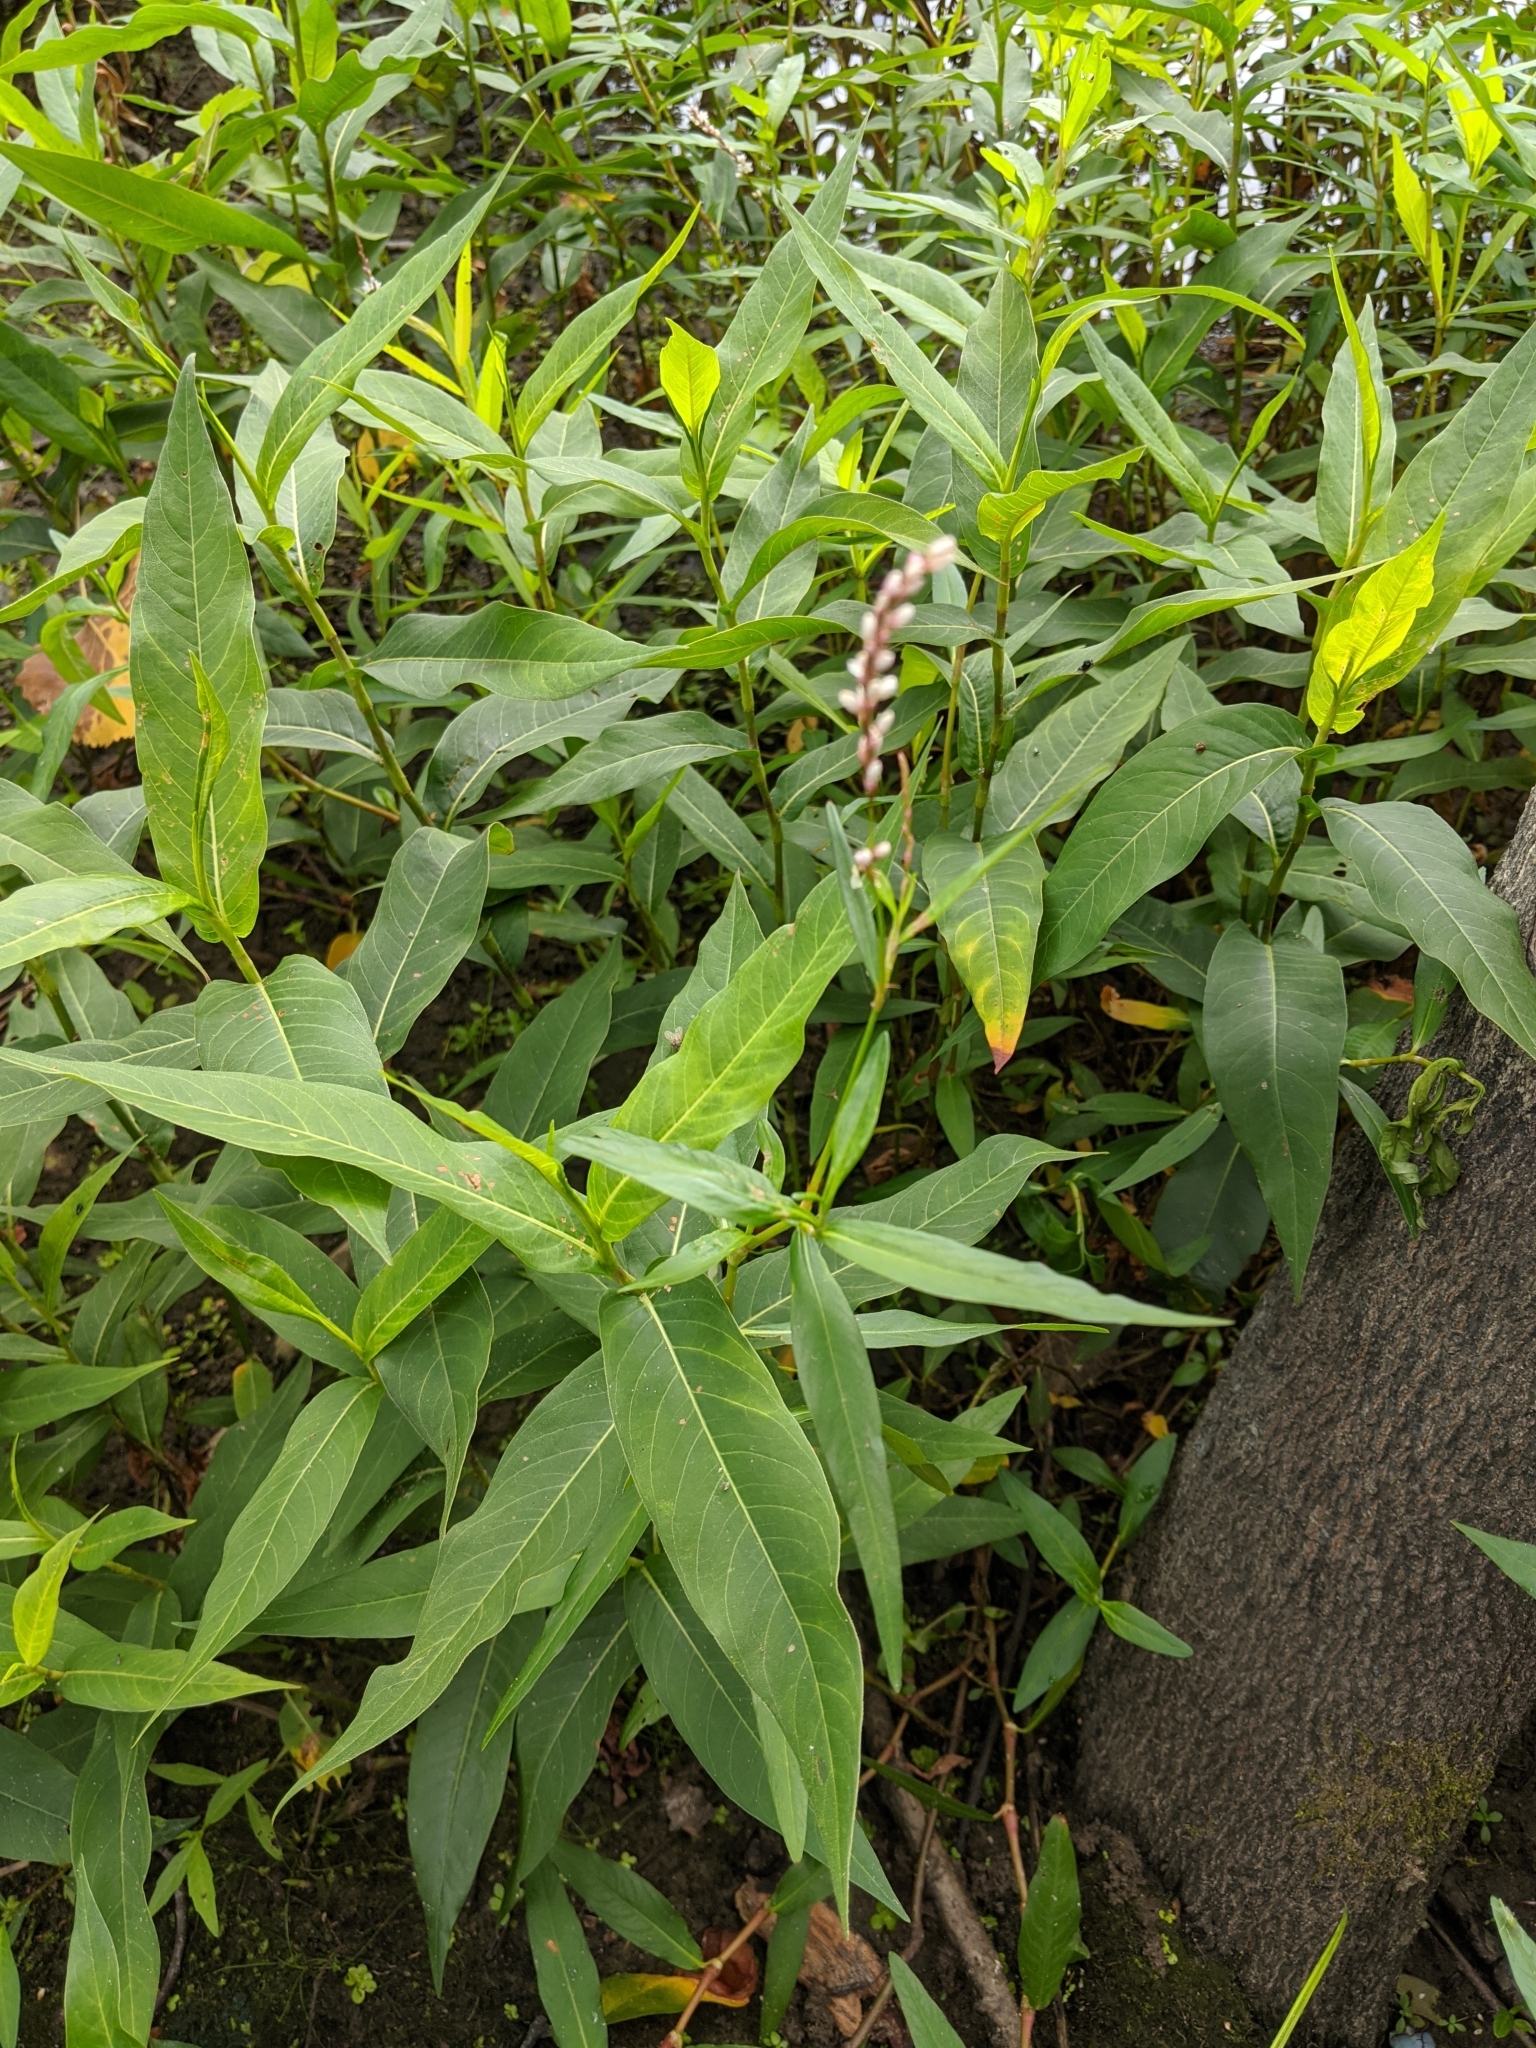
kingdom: Plantae
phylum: Tracheophyta
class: Magnoliopsida
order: Caryophyllales
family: Polygonaceae
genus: Persicaria
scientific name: Persicaria hydropiperoides
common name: Swamp smartweed
